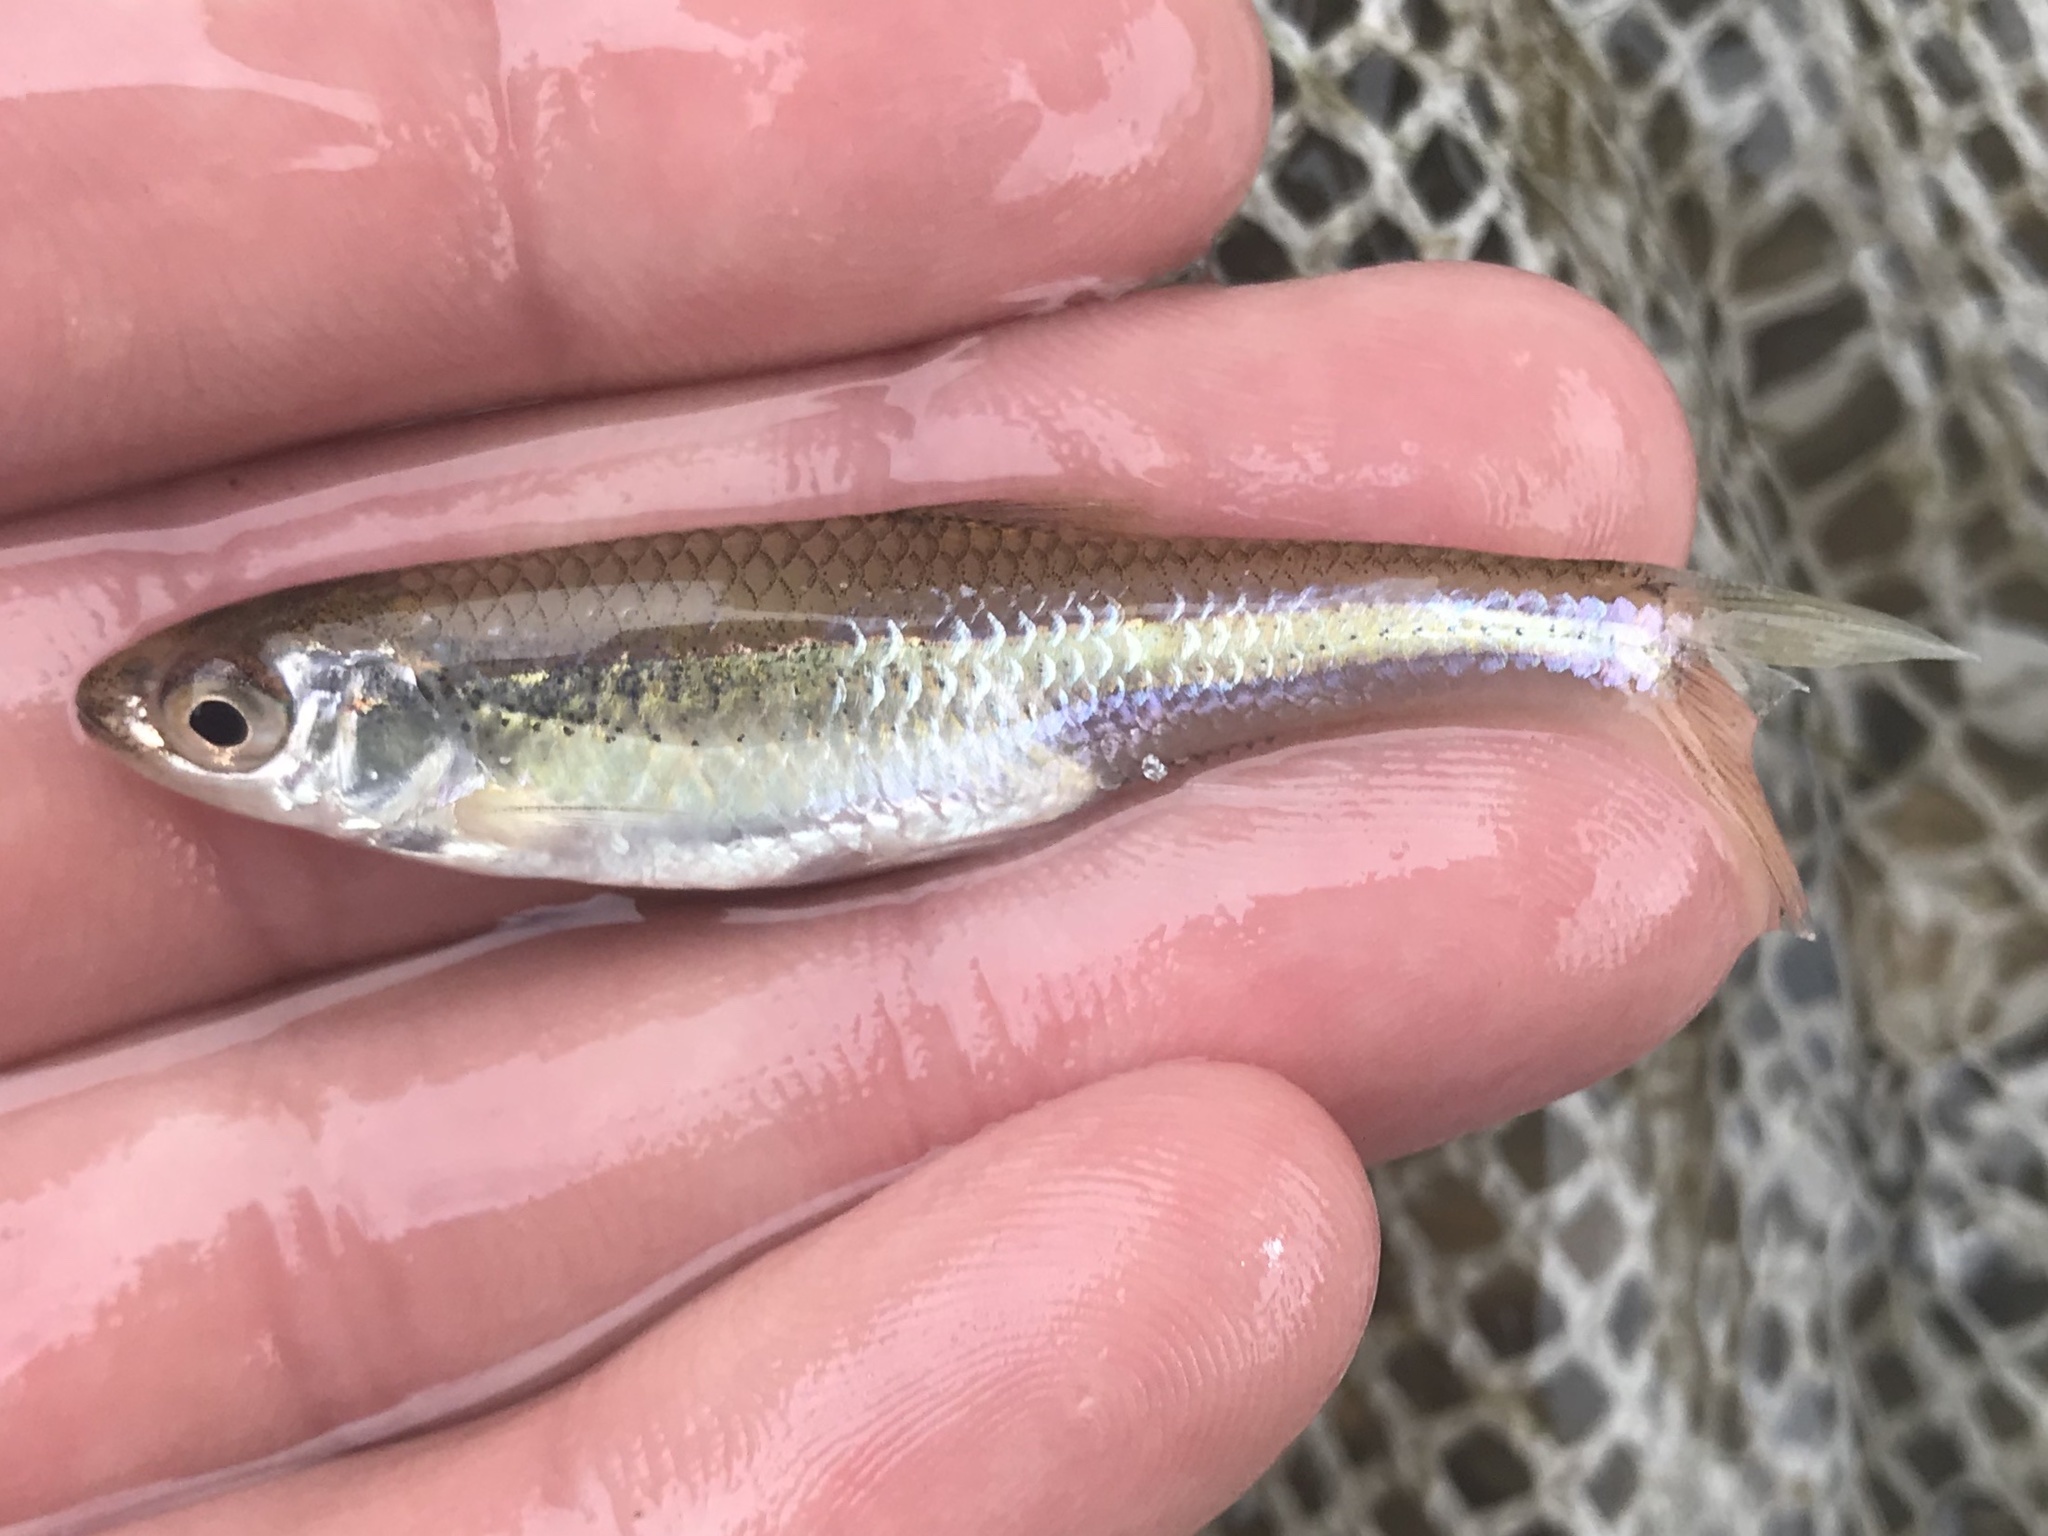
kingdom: Animalia
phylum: Chordata
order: Cypriniformes
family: Cyprinidae
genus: Cyprinella
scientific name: Cyprinella lutrensis
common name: Red shiner
